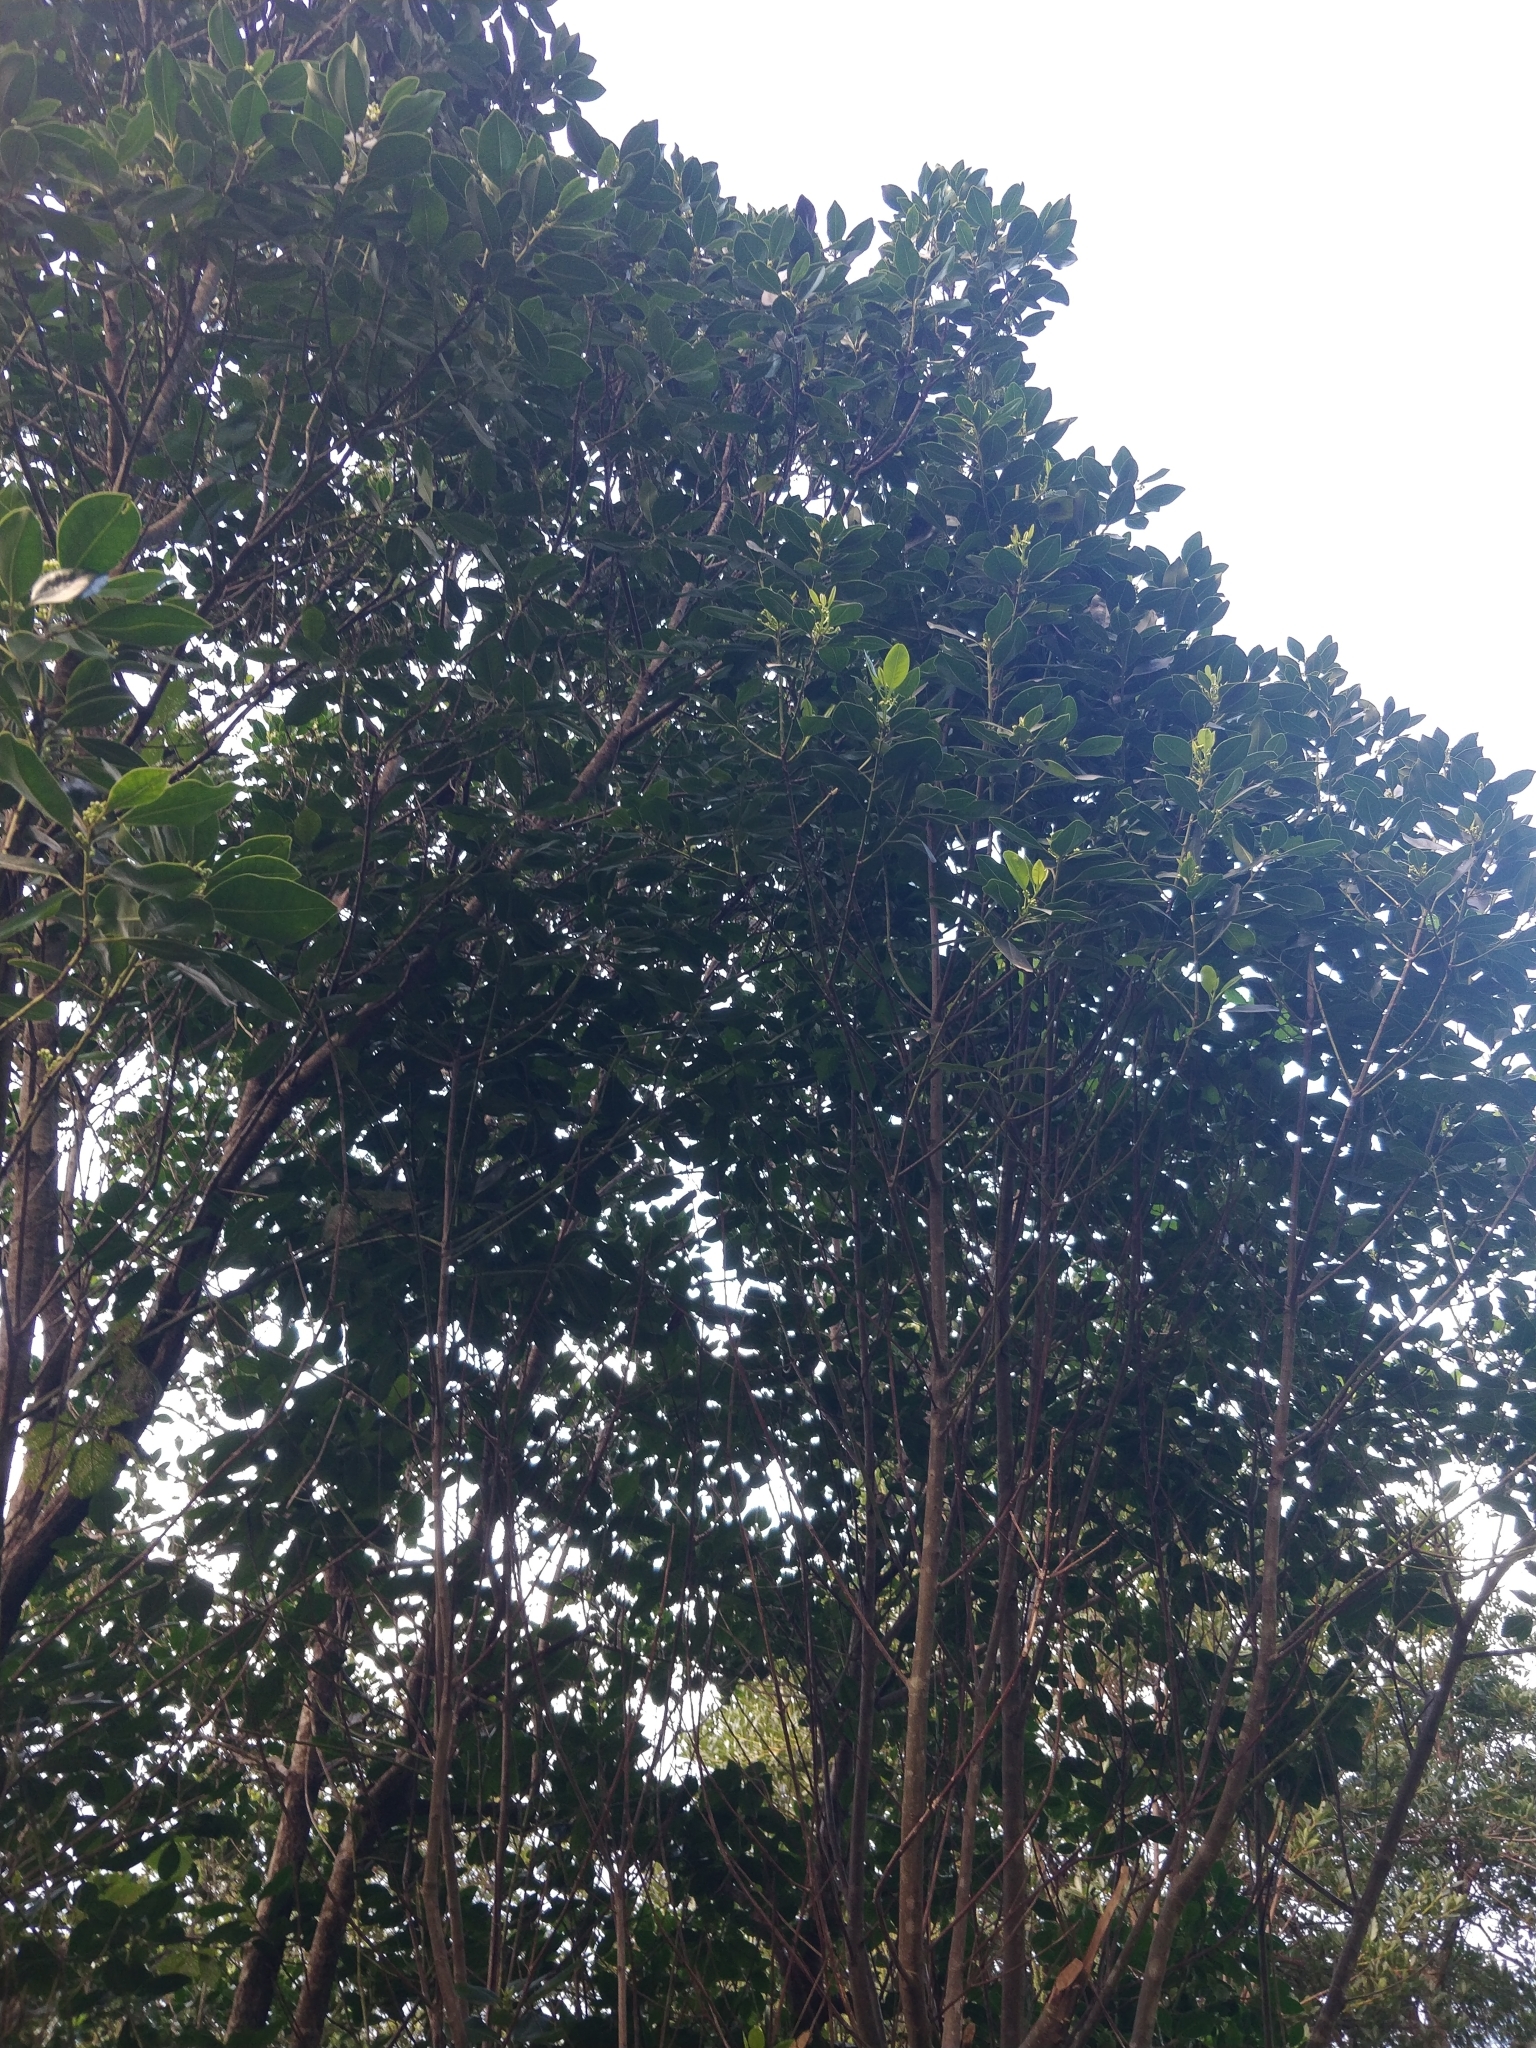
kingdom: Plantae
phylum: Tracheophyta
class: Magnoliopsida
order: Aquifoliales
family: Aquifoliaceae
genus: Ilex
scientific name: Ilex canariensis
